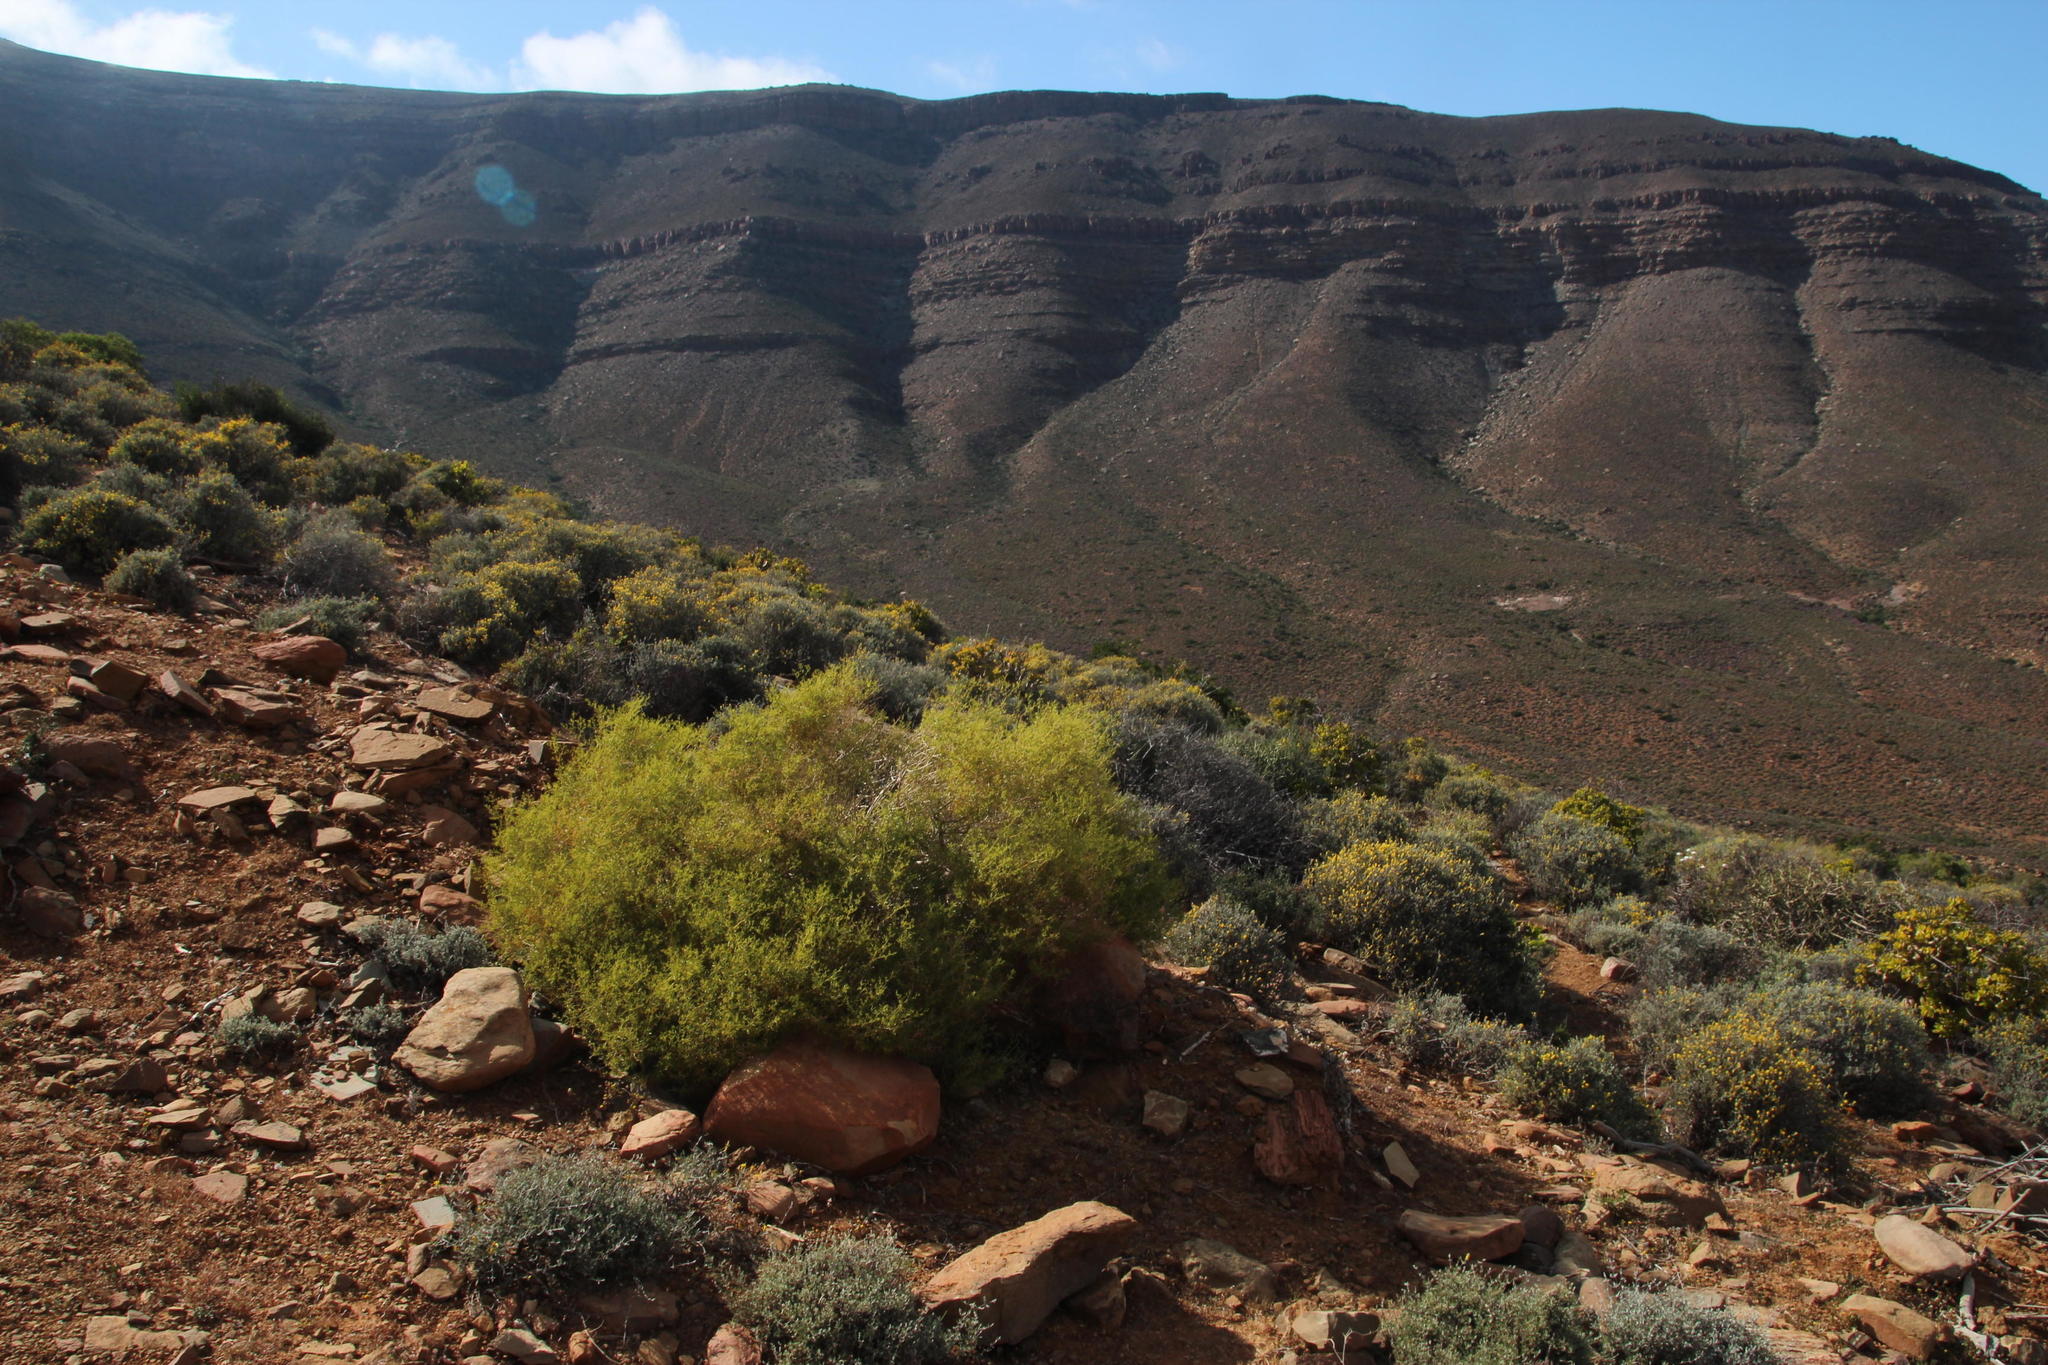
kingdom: Plantae
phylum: Tracheophyta
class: Magnoliopsida
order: Caryophyllales
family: Aizoaceae
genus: Aizoon
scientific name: Aizoon africanum
